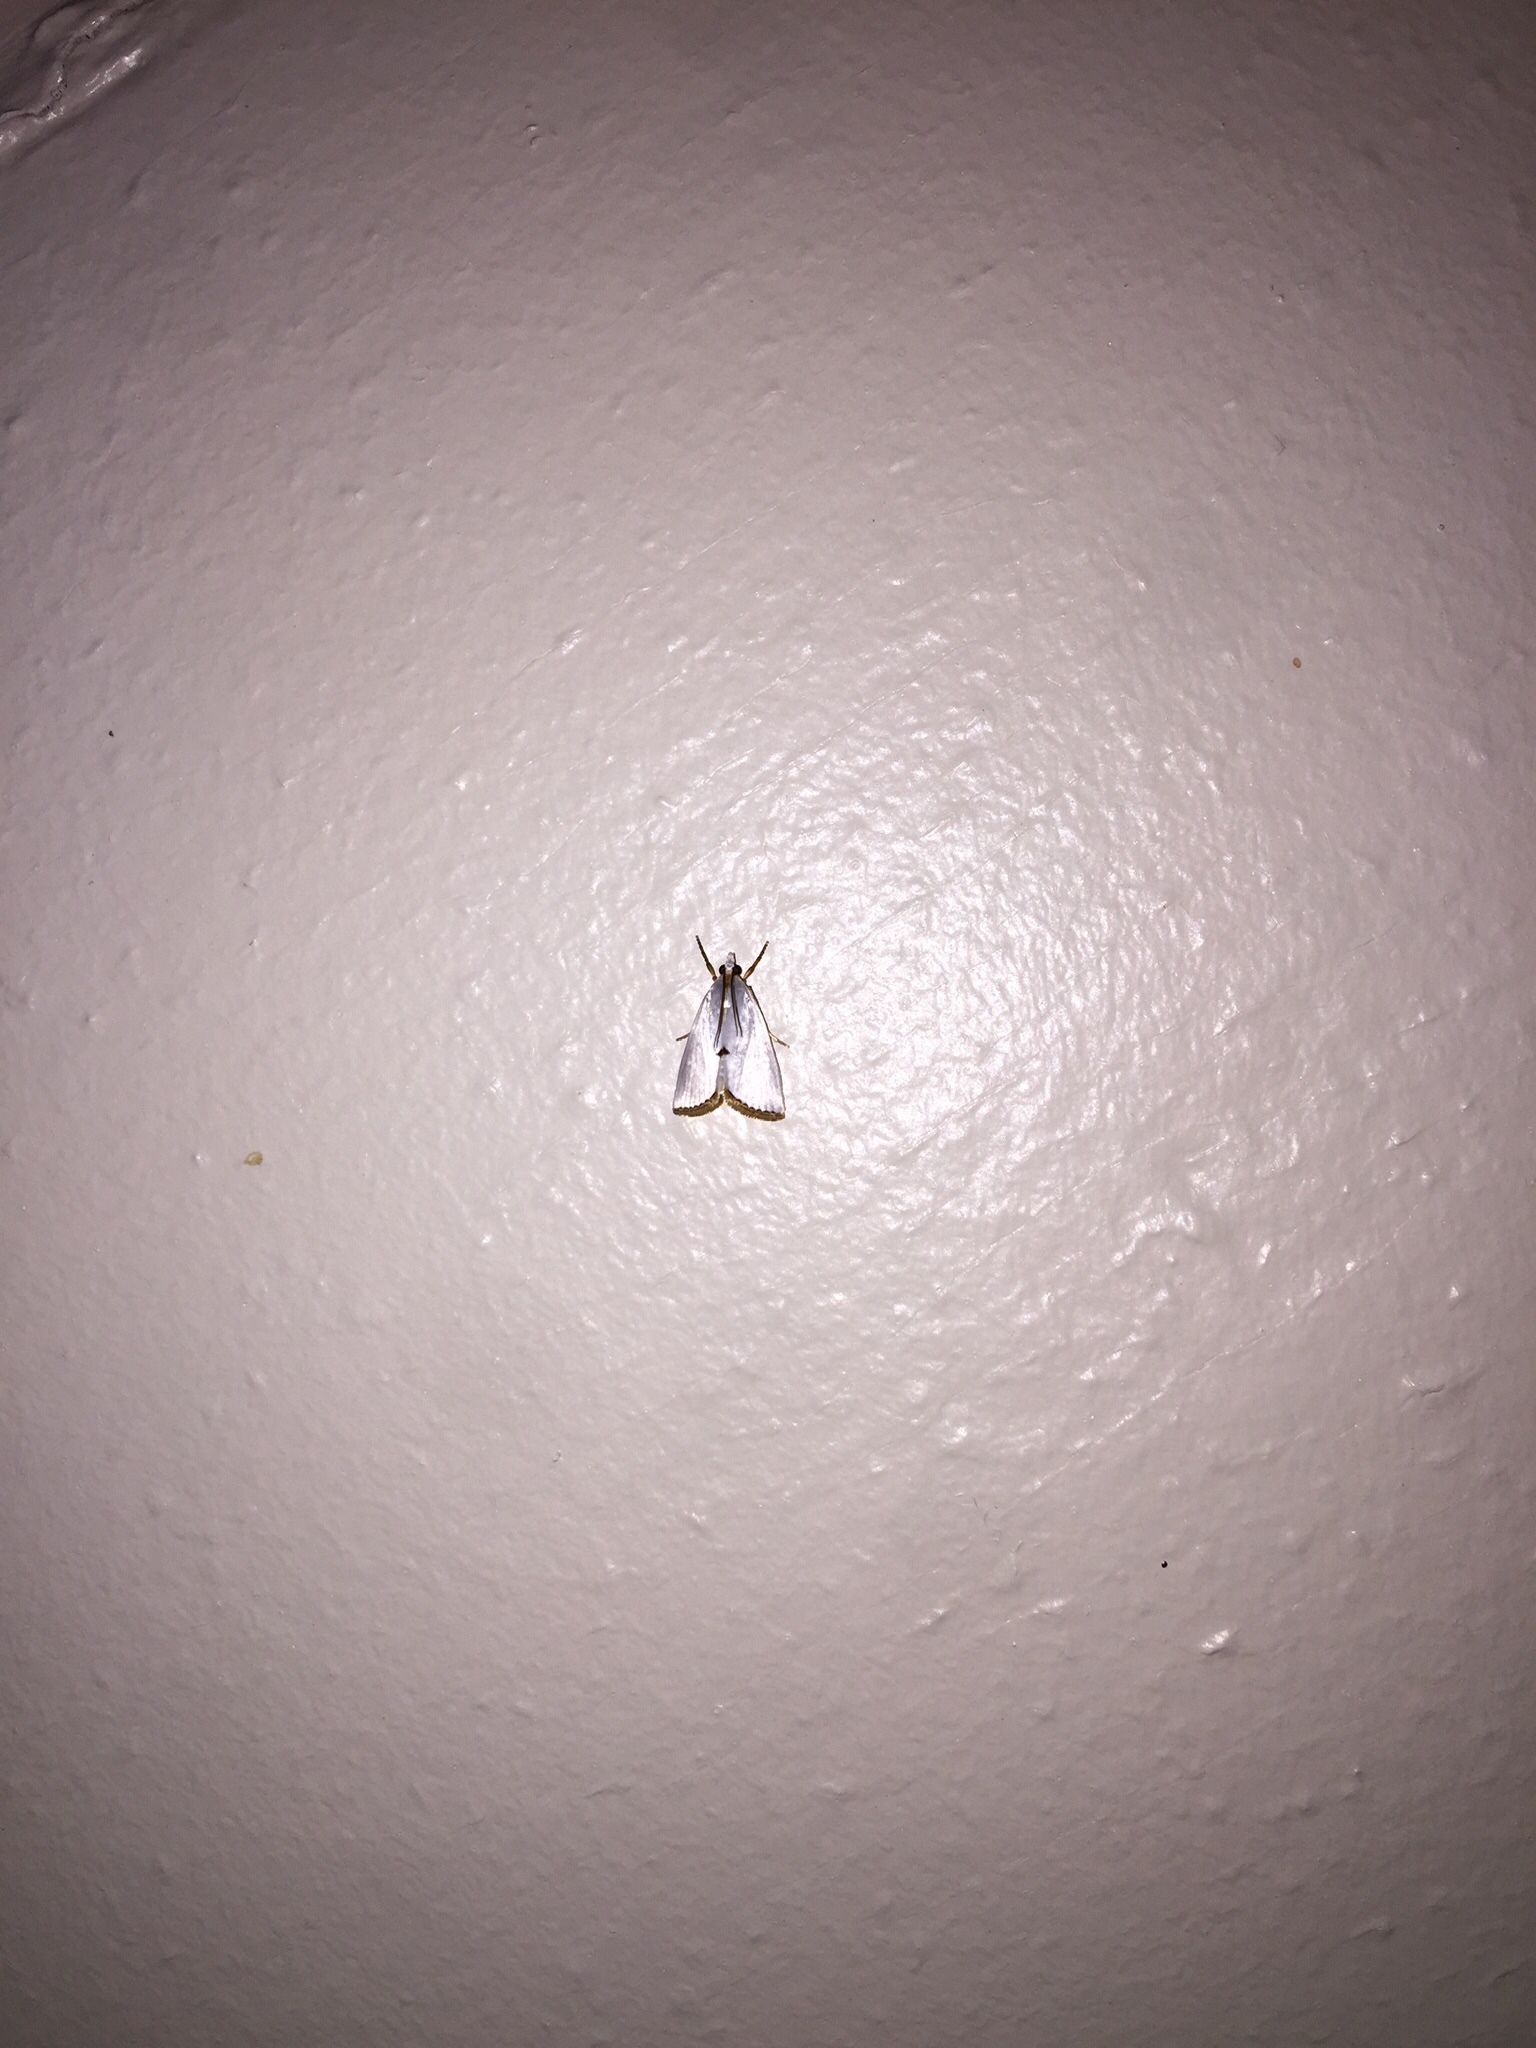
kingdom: Animalia
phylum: Arthropoda
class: Insecta
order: Lepidoptera
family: Crambidae
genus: Argyria
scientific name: Argyria nivalis
